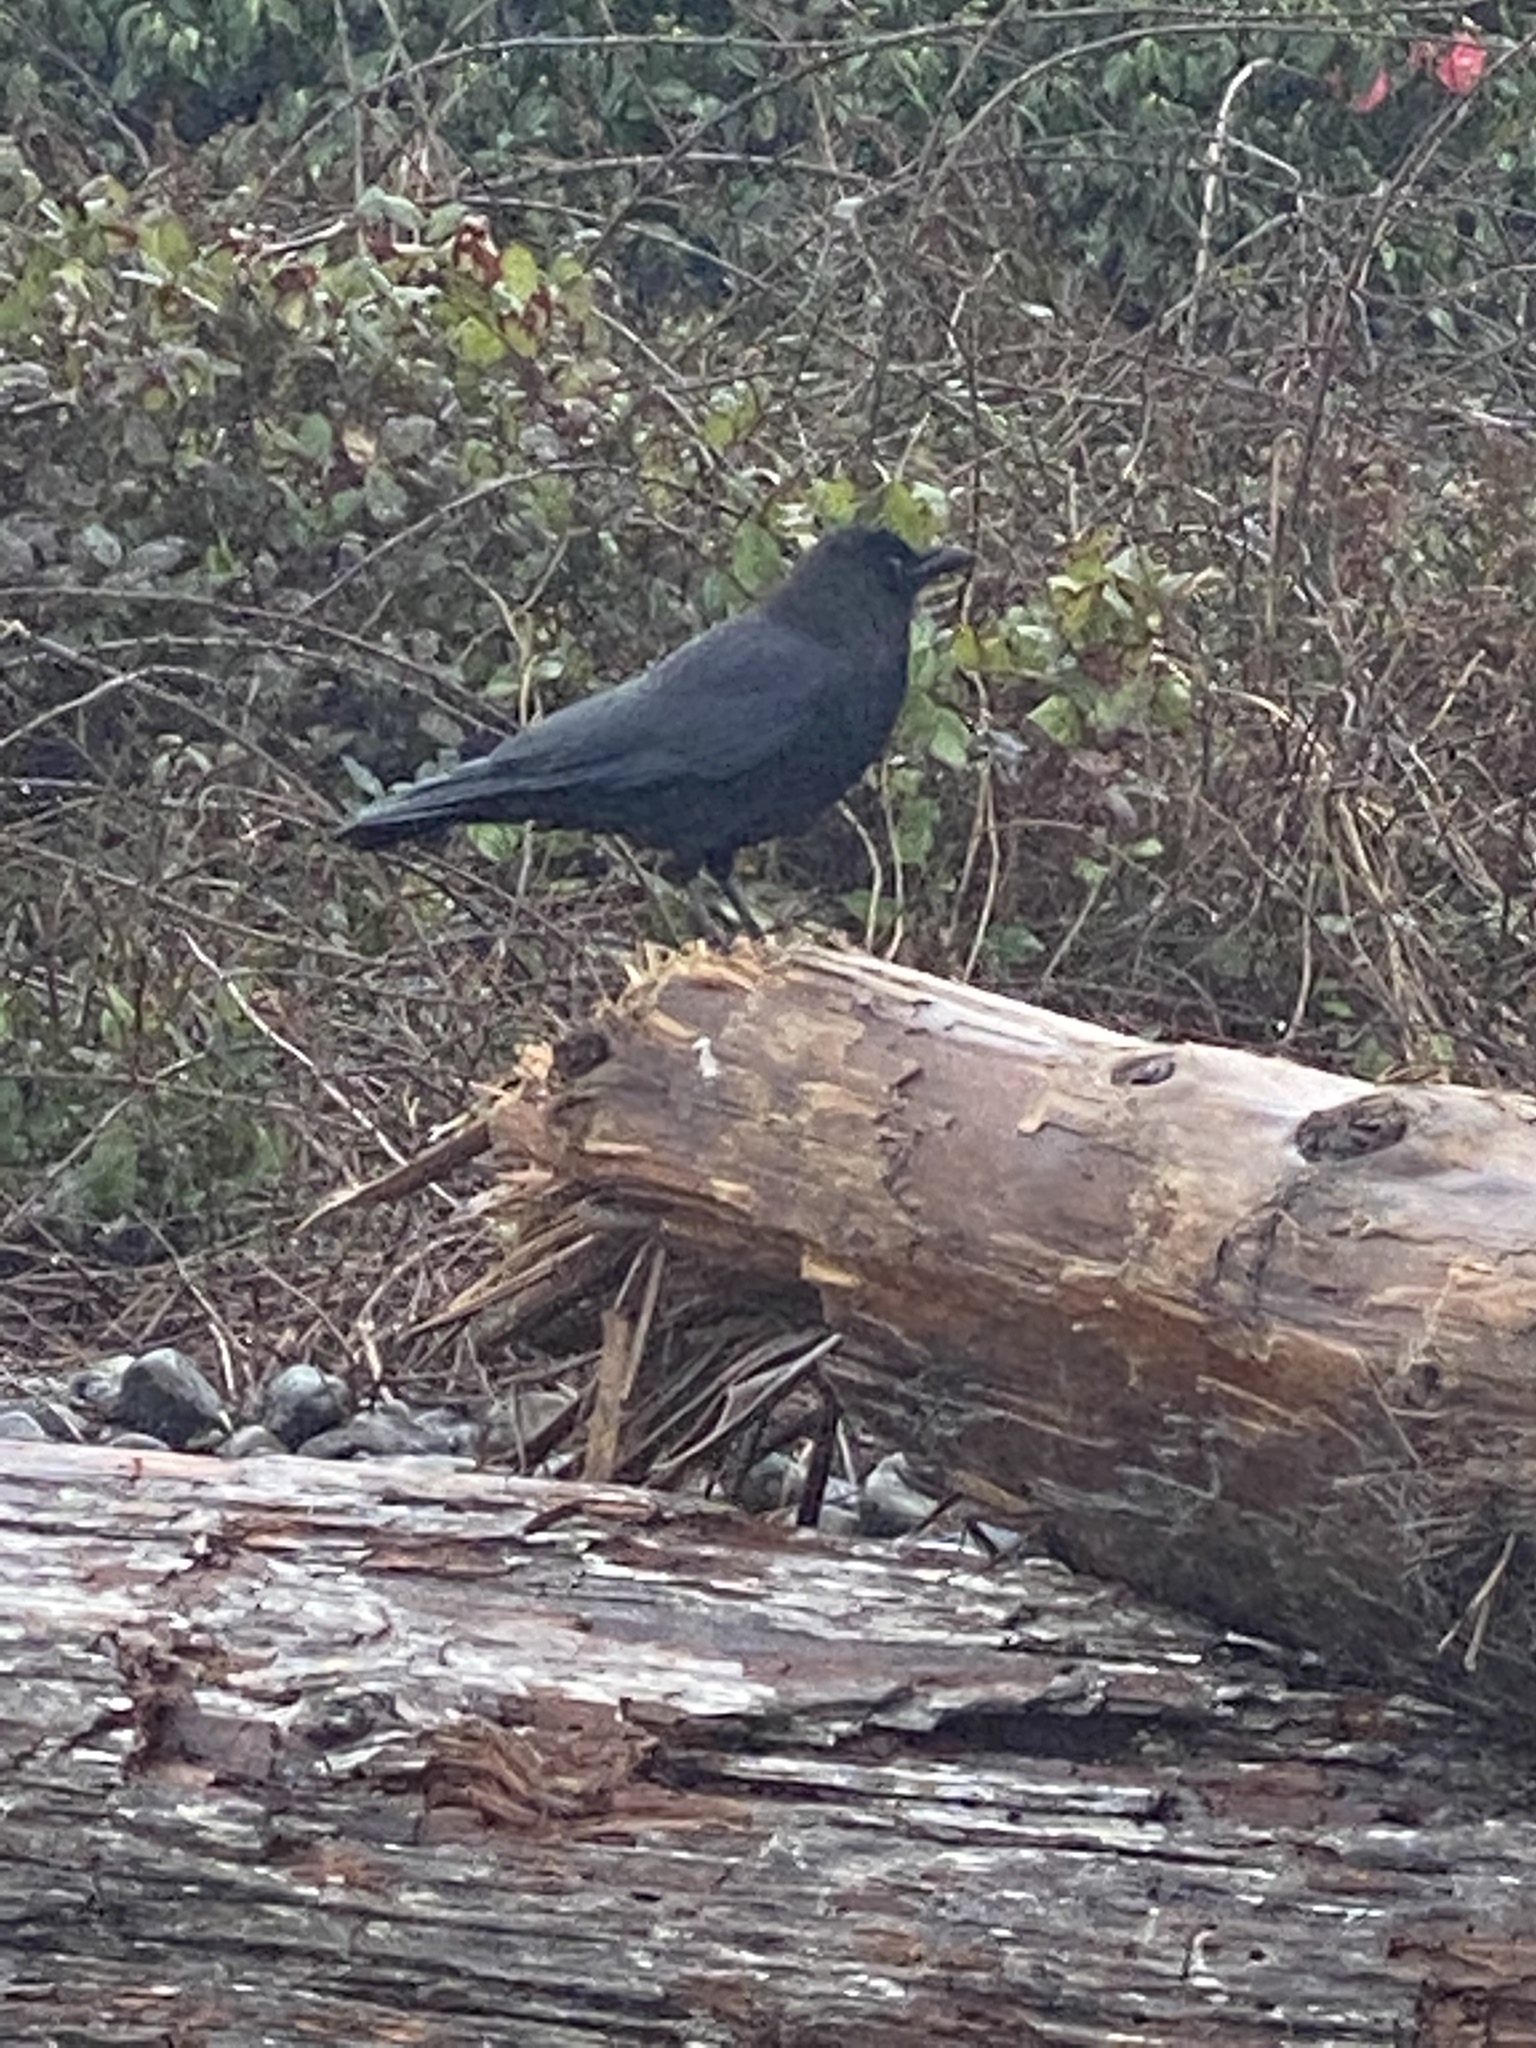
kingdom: Animalia
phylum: Chordata
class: Aves
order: Passeriformes
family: Corvidae
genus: Corvus
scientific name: Corvus brachyrhynchos
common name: American crow
